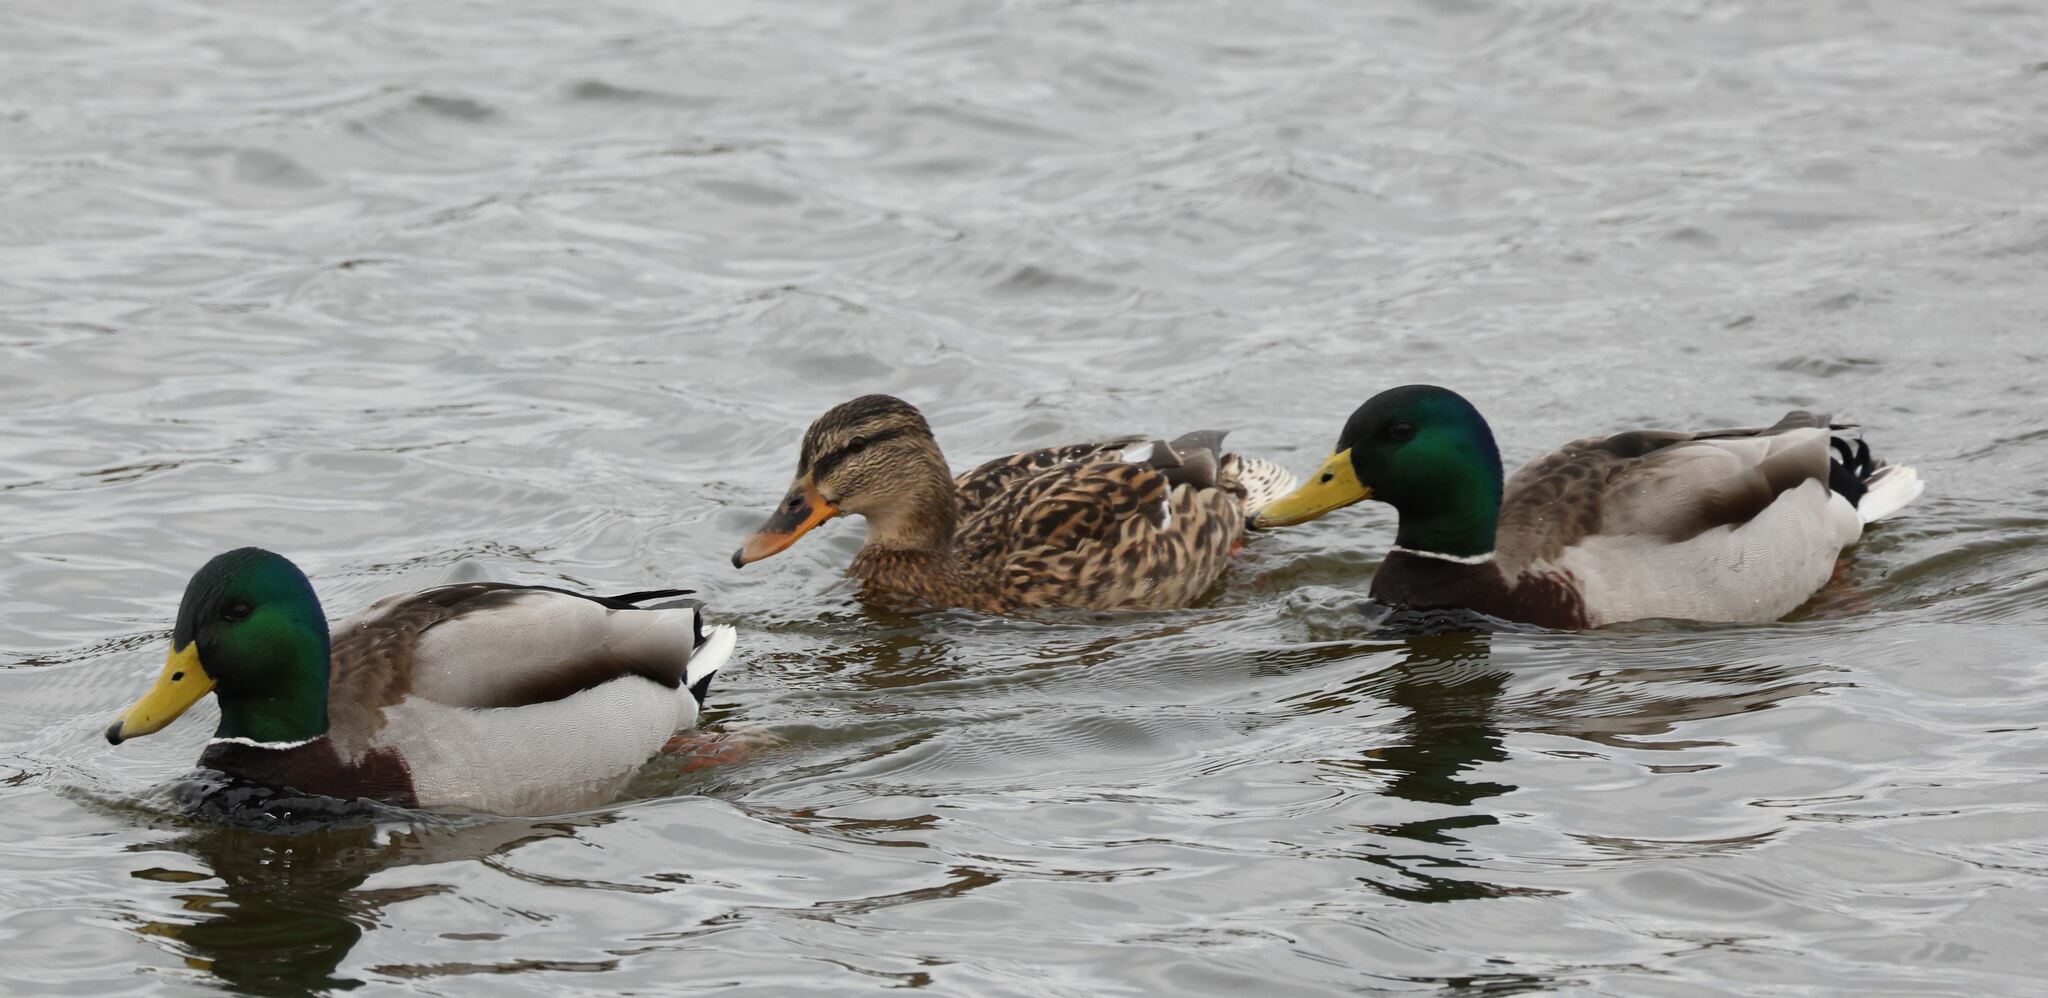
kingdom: Animalia
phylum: Chordata
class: Aves
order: Anseriformes
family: Anatidae
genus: Anas
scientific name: Anas platyrhynchos
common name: Mallard
